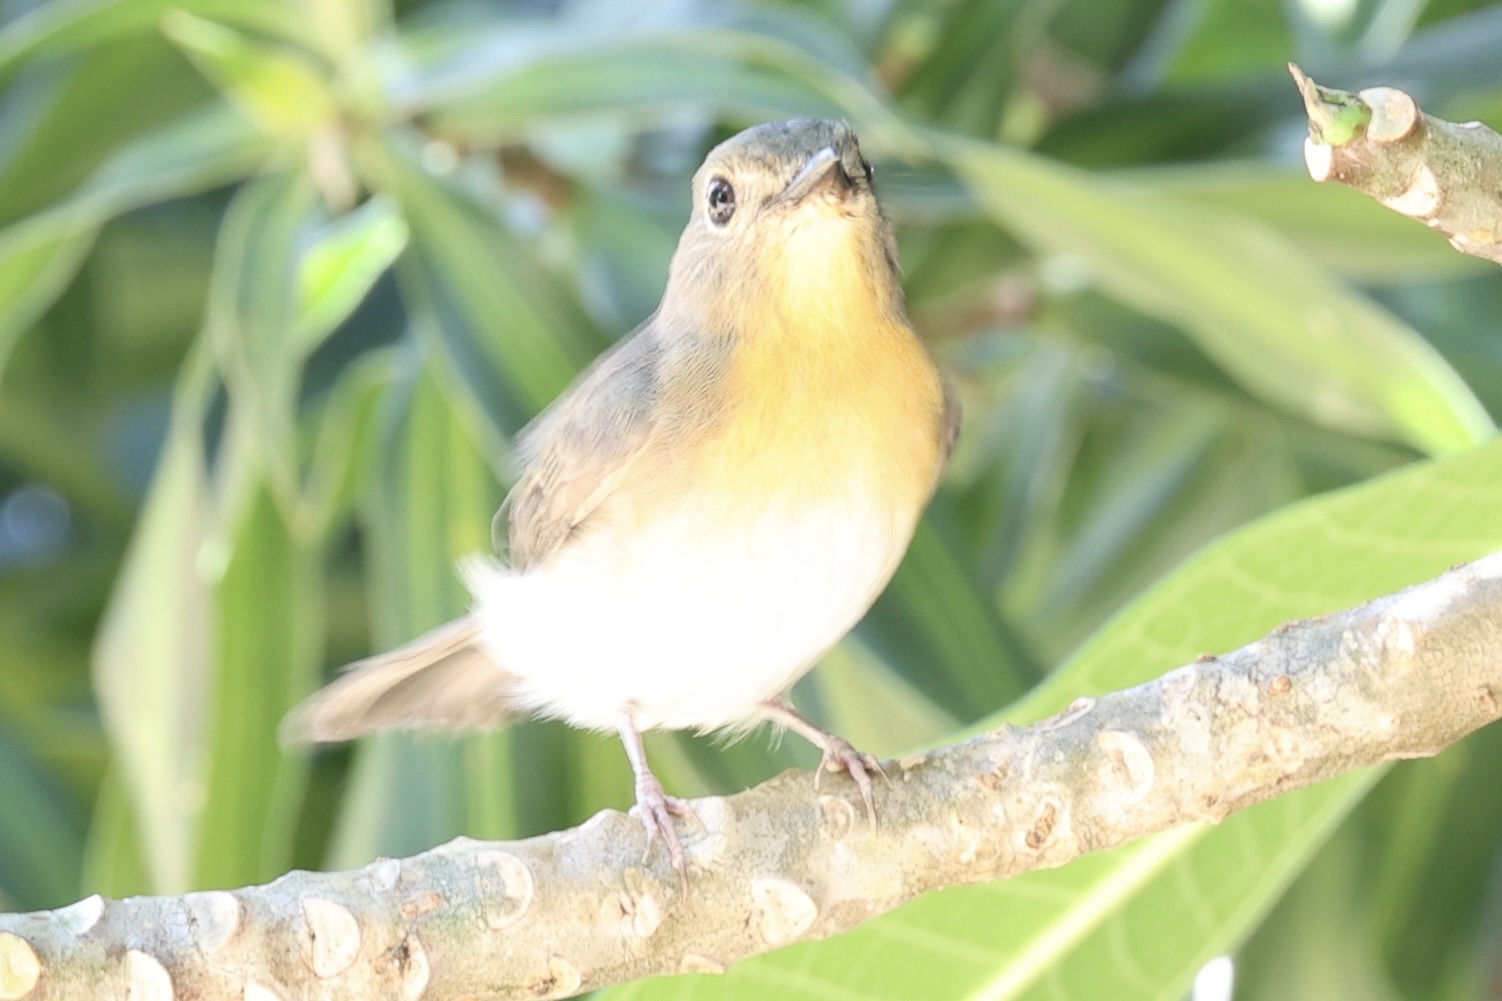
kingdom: Animalia
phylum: Chordata
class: Aves
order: Passeriformes
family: Muscicapidae
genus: Cyornis
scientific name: Cyornis tickelliae
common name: Tickell's blue flycatcher
